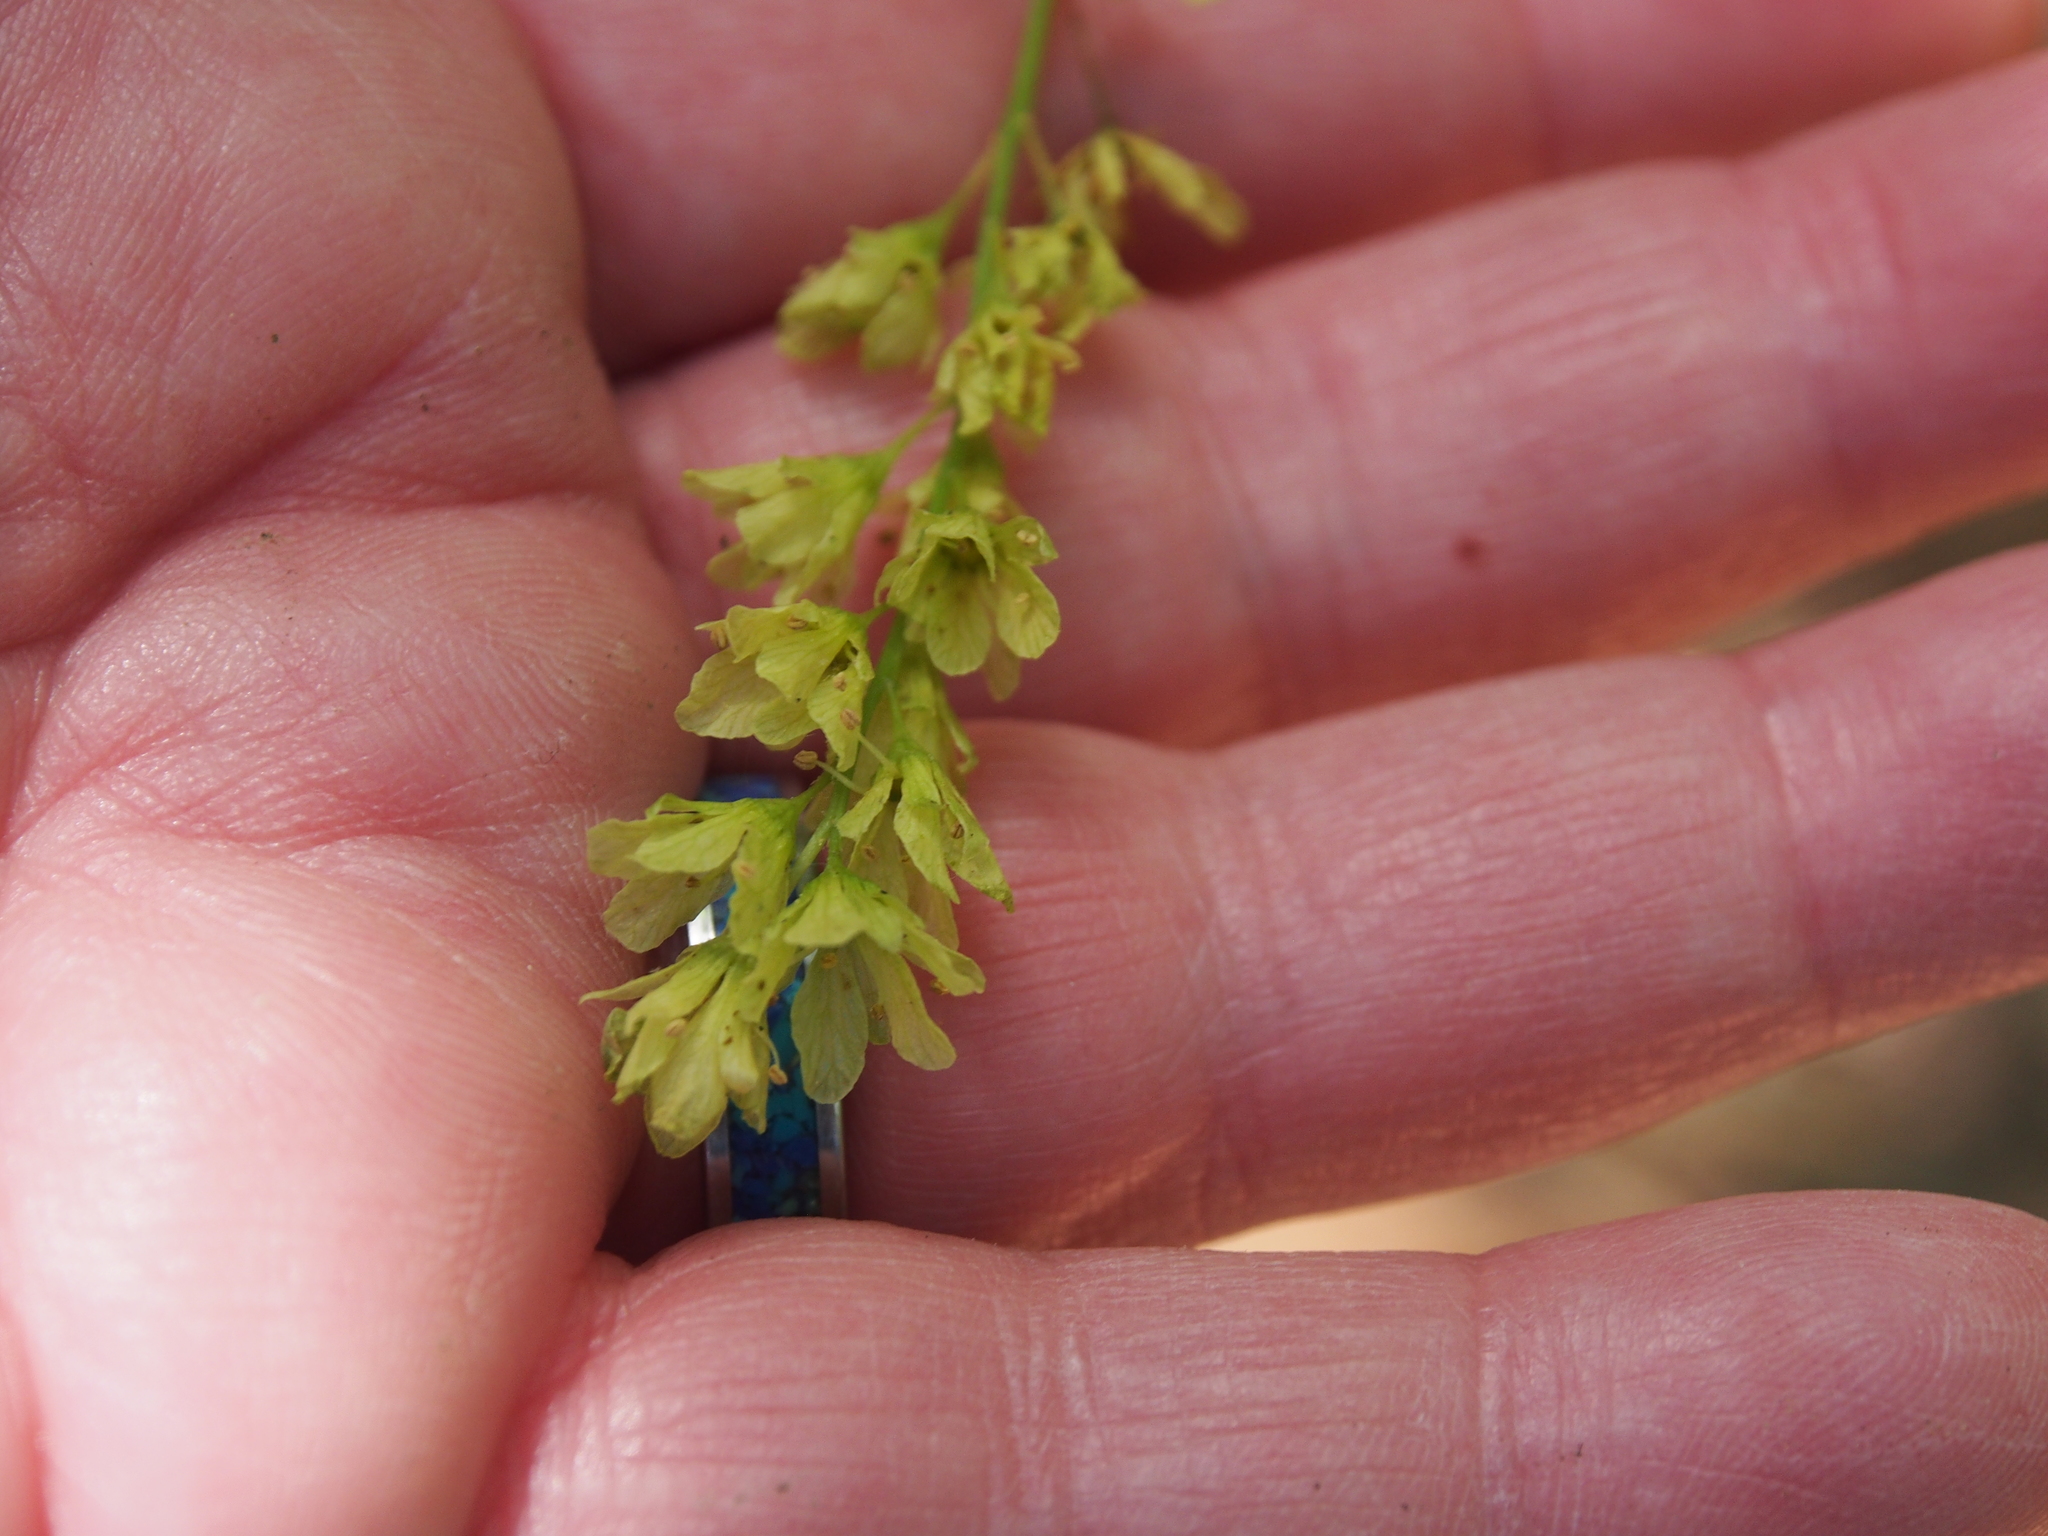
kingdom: Plantae
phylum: Tracheophyta
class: Magnoliopsida
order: Sapindales
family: Sapindaceae
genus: Acer
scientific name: Acer pensylvanicum
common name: Moosewood
